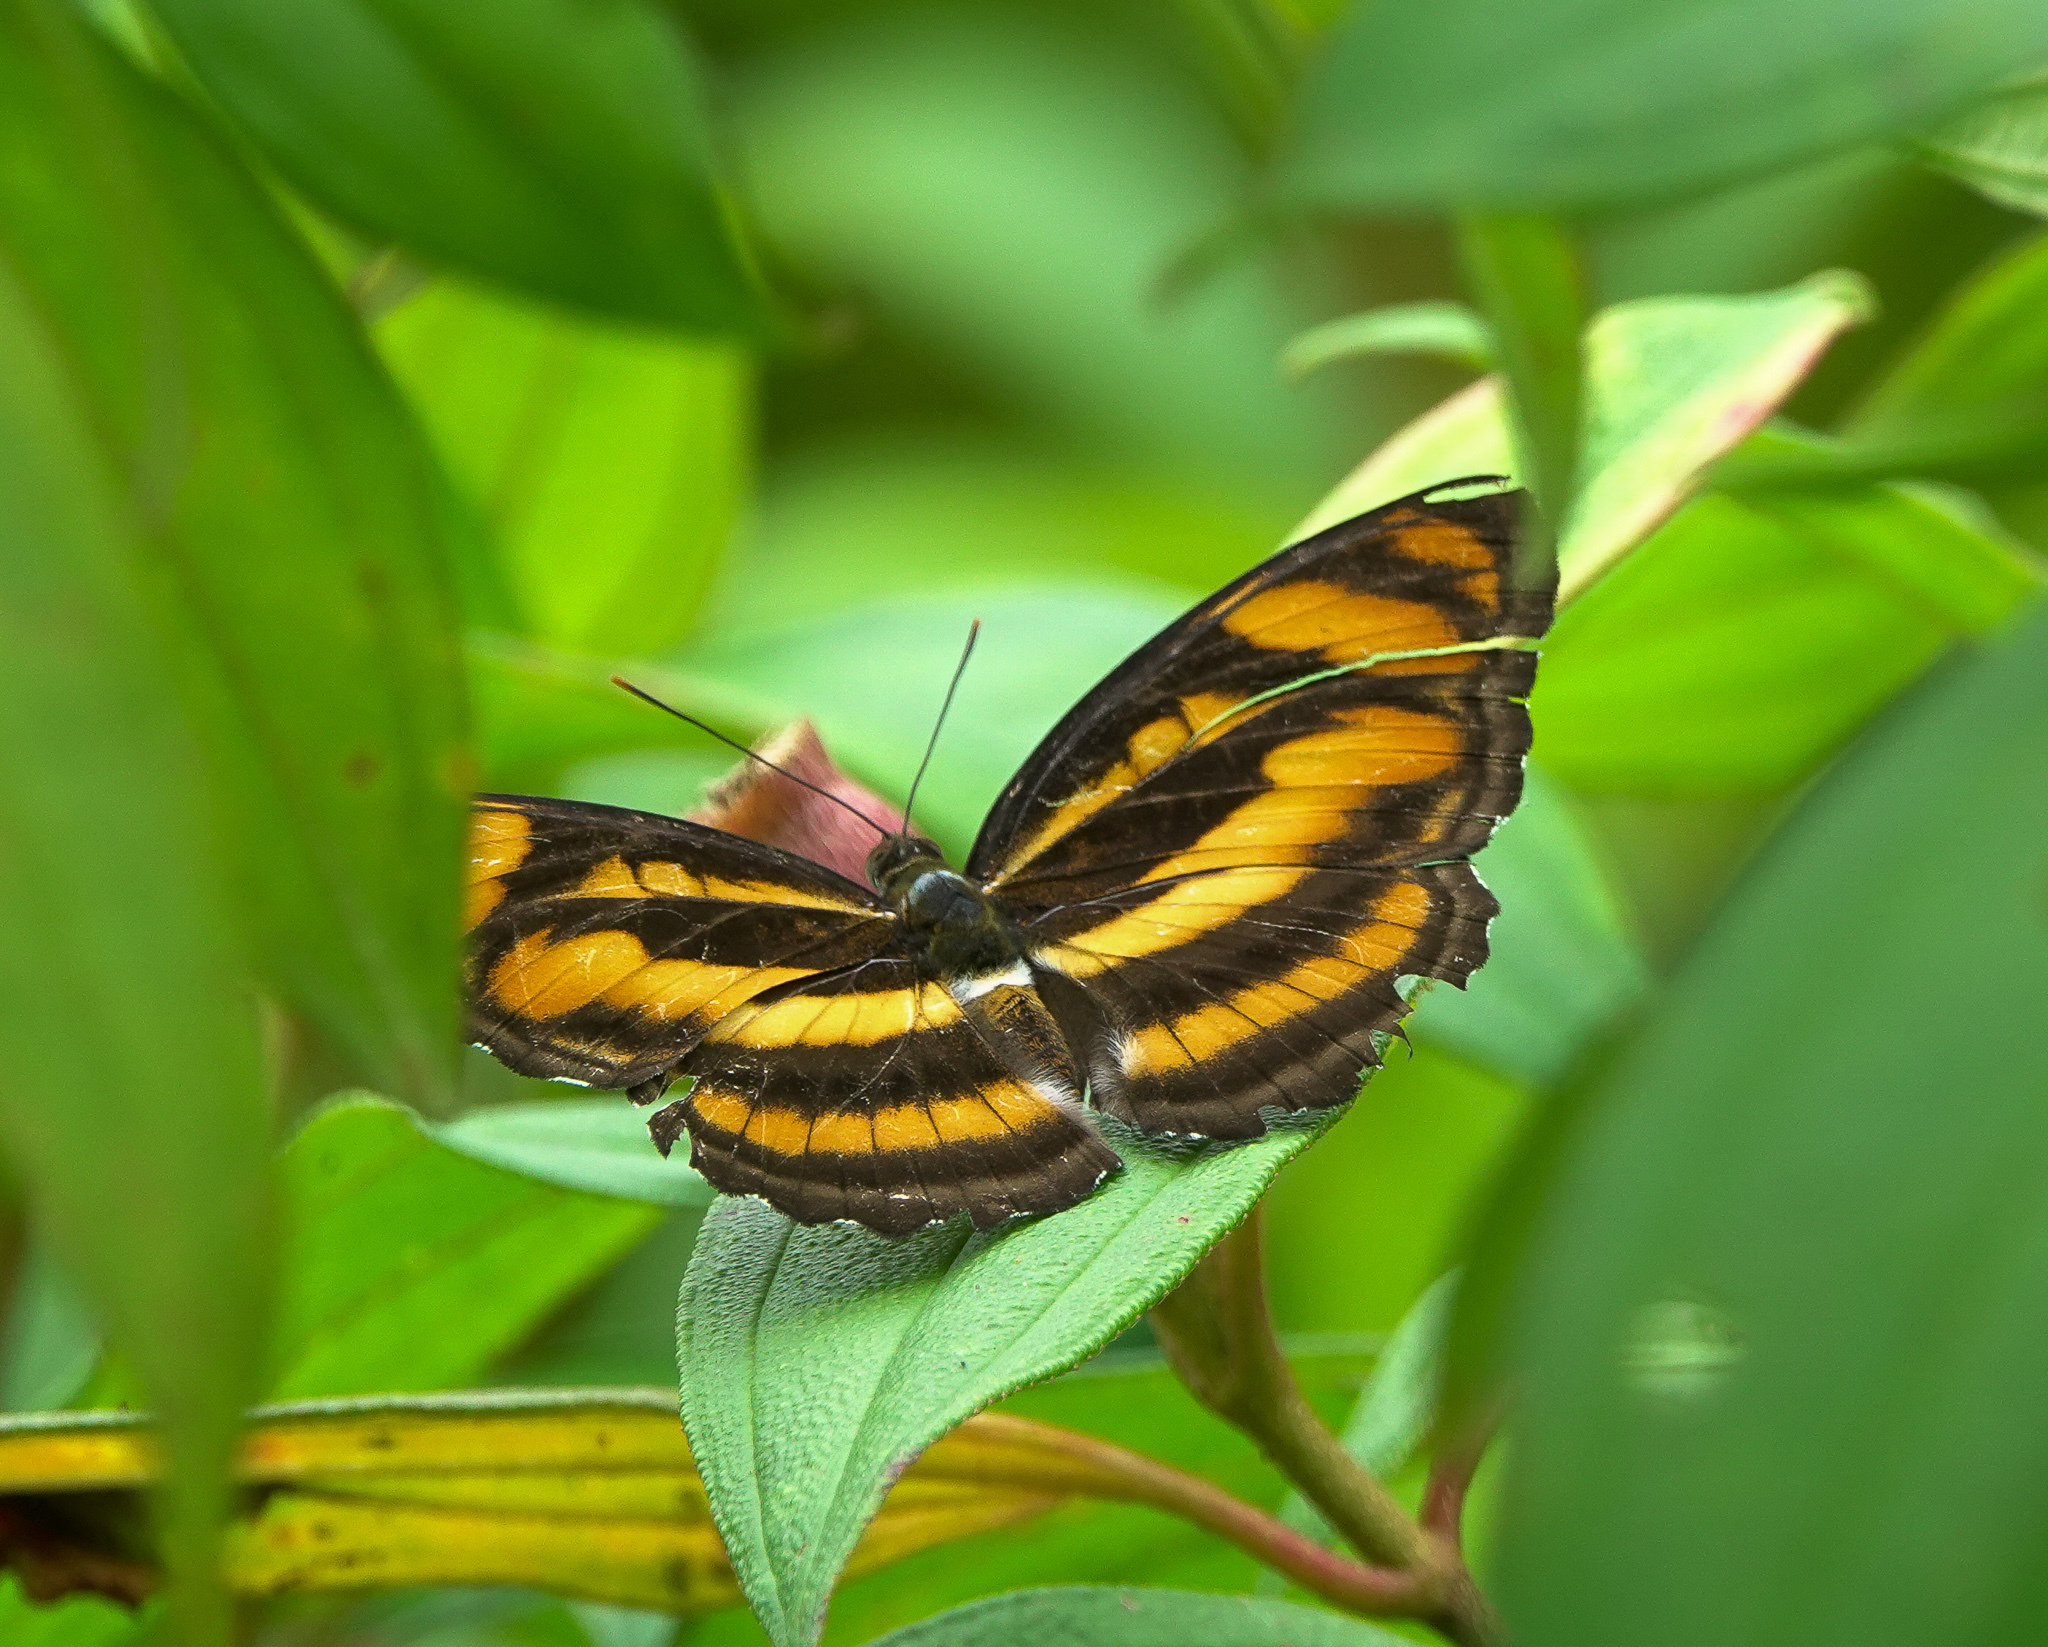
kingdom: Animalia
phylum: Arthropoda
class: Insecta
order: Lepidoptera
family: Nymphalidae
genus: Parathyma
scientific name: Parathyma nefte
